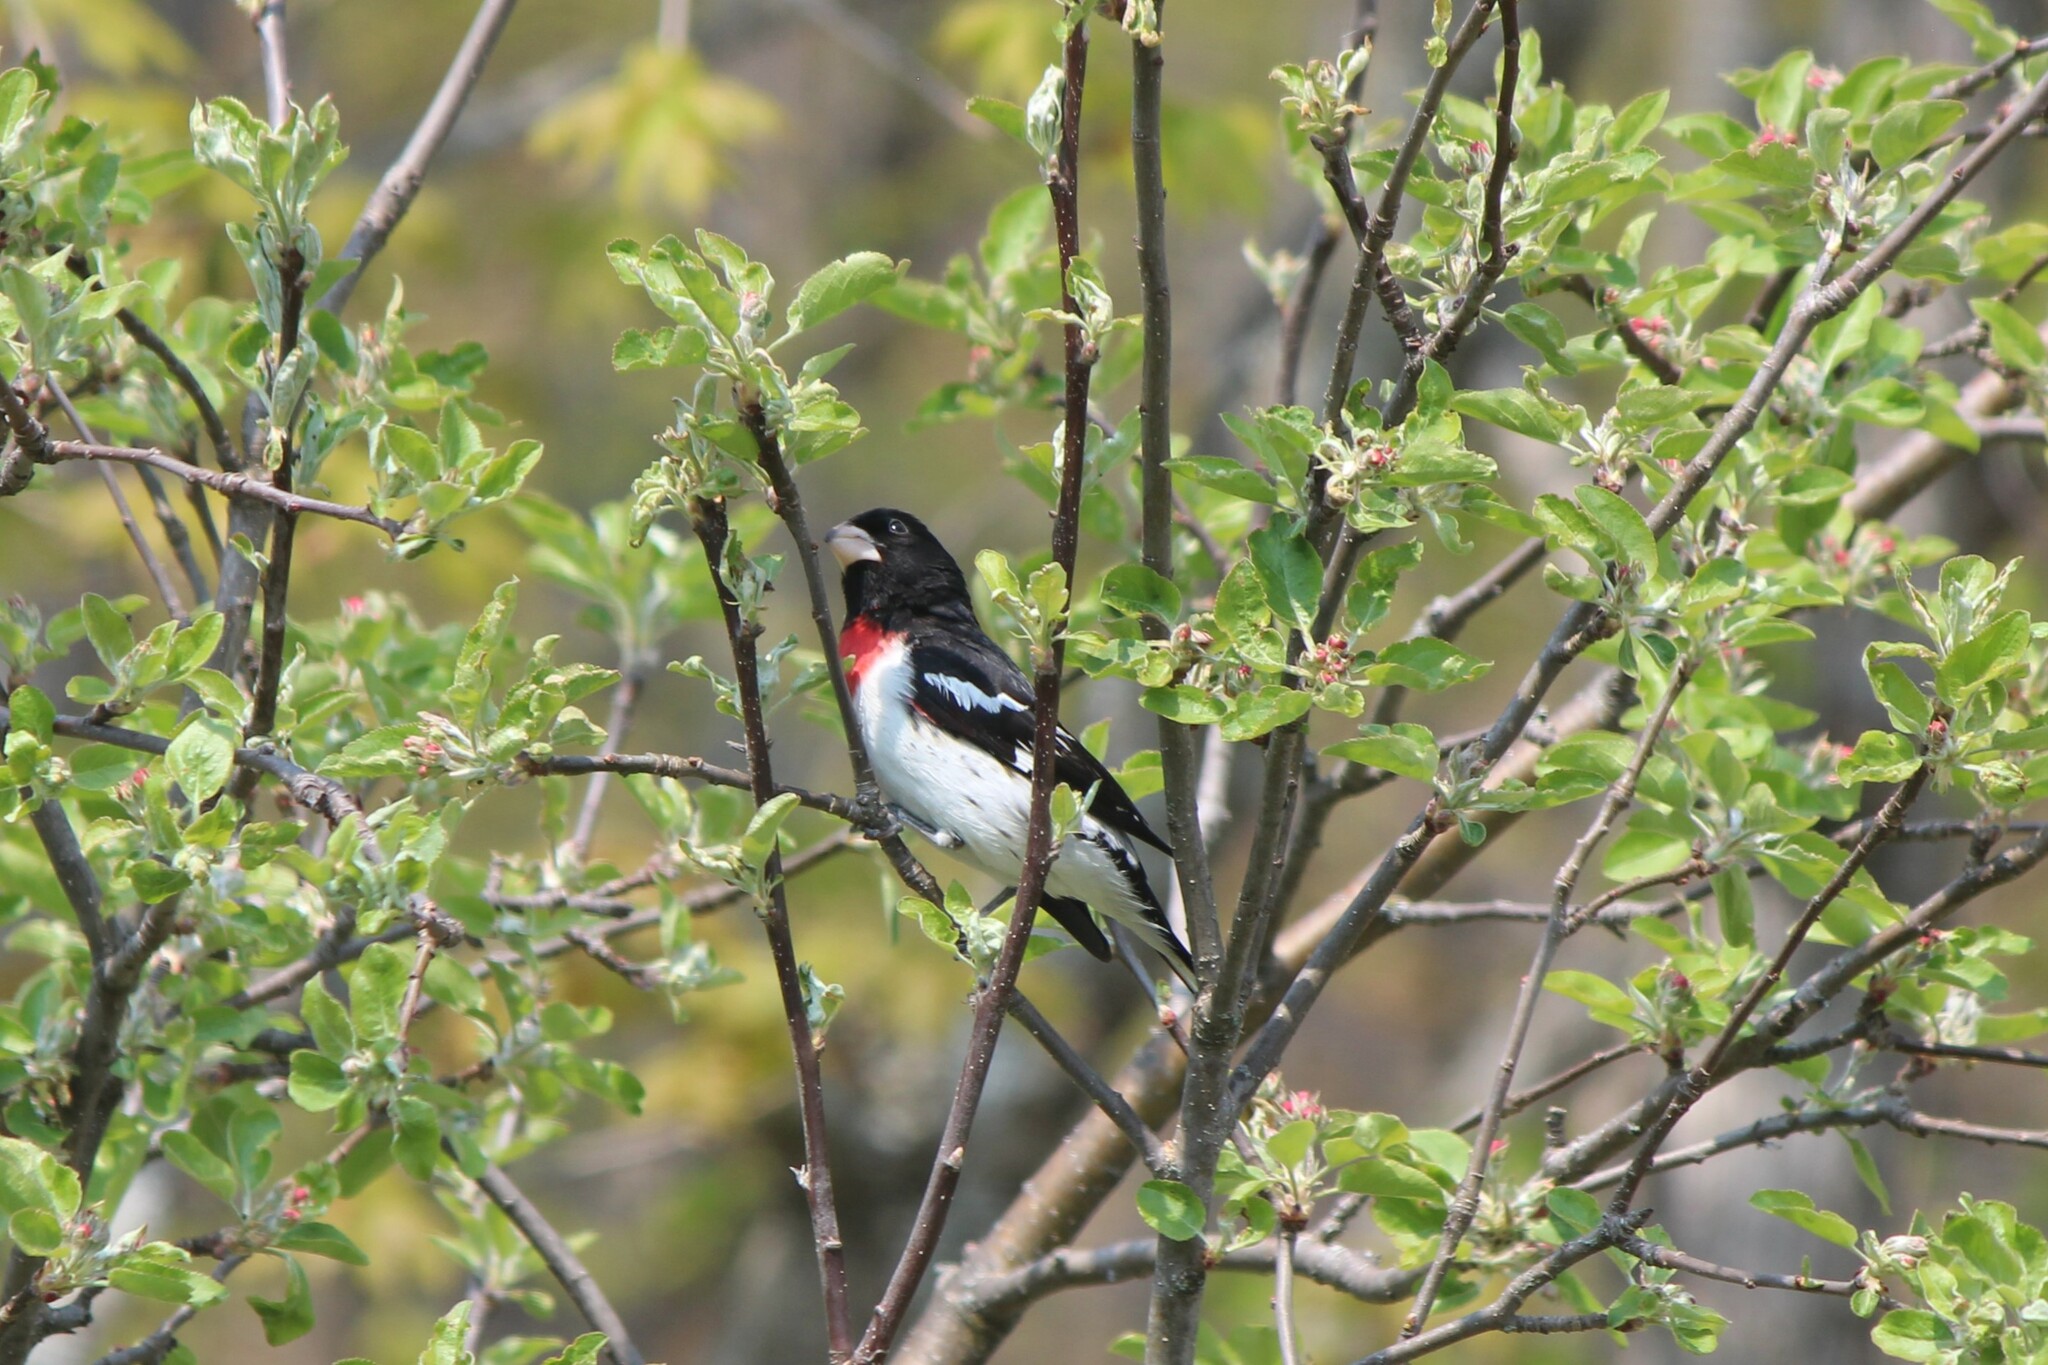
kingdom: Animalia
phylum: Chordata
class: Aves
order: Passeriformes
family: Cardinalidae
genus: Pheucticus
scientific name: Pheucticus ludovicianus
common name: Rose-breasted grosbeak
